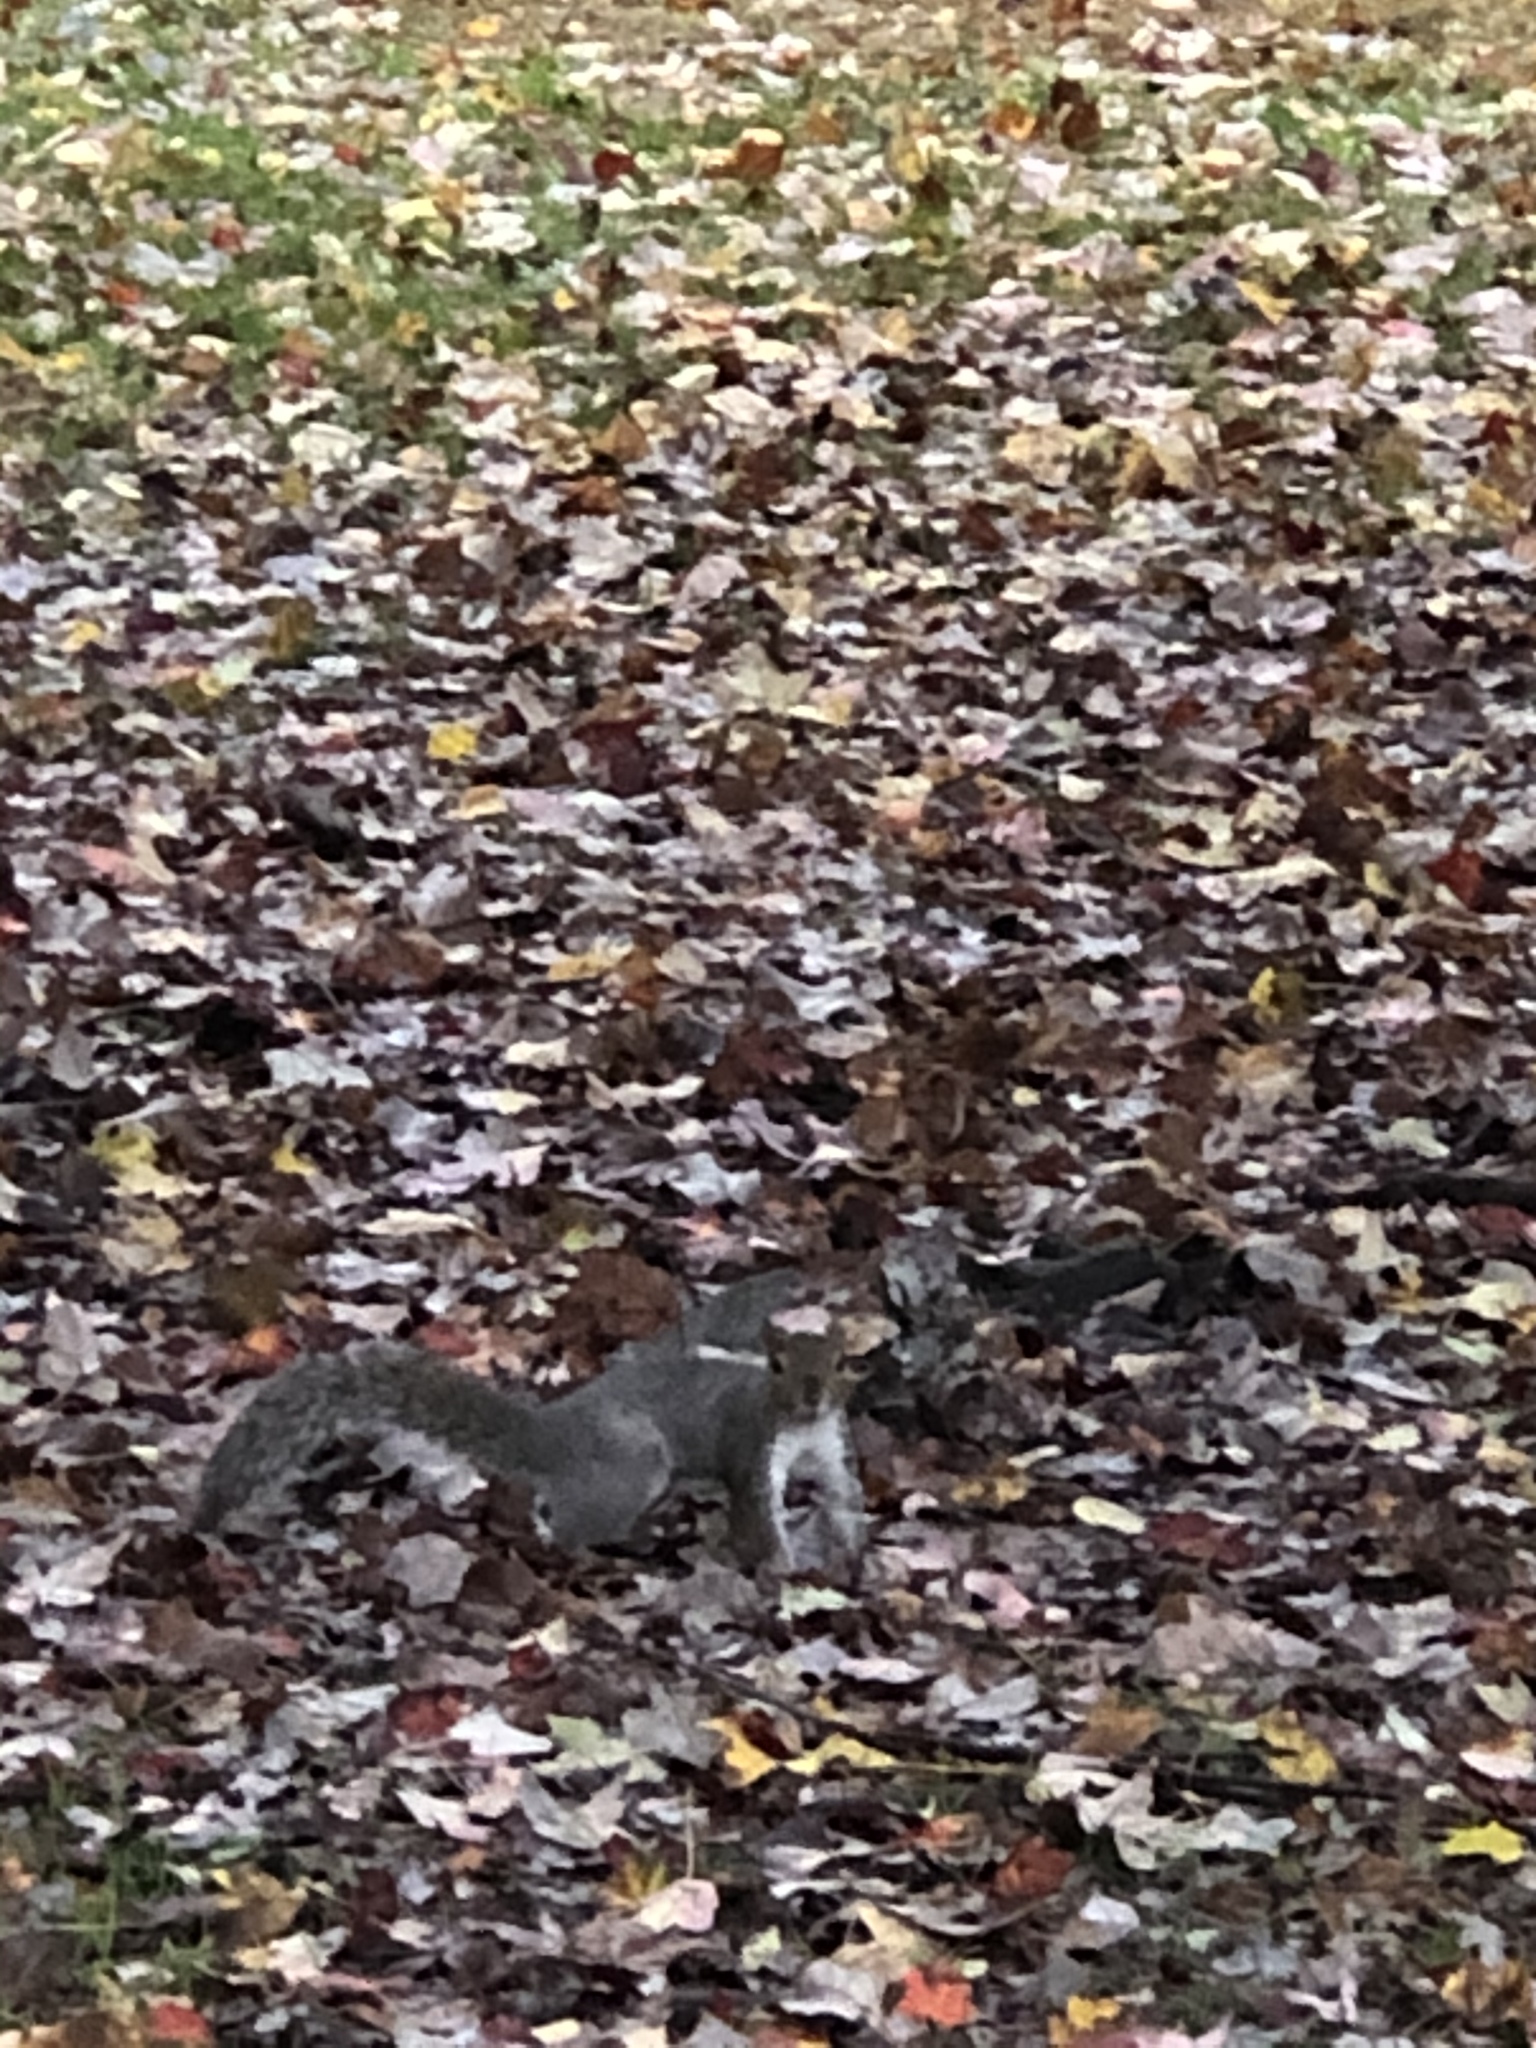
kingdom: Animalia
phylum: Chordata
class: Mammalia
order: Rodentia
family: Sciuridae
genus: Sciurus
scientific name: Sciurus carolinensis
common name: Eastern gray squirrel
